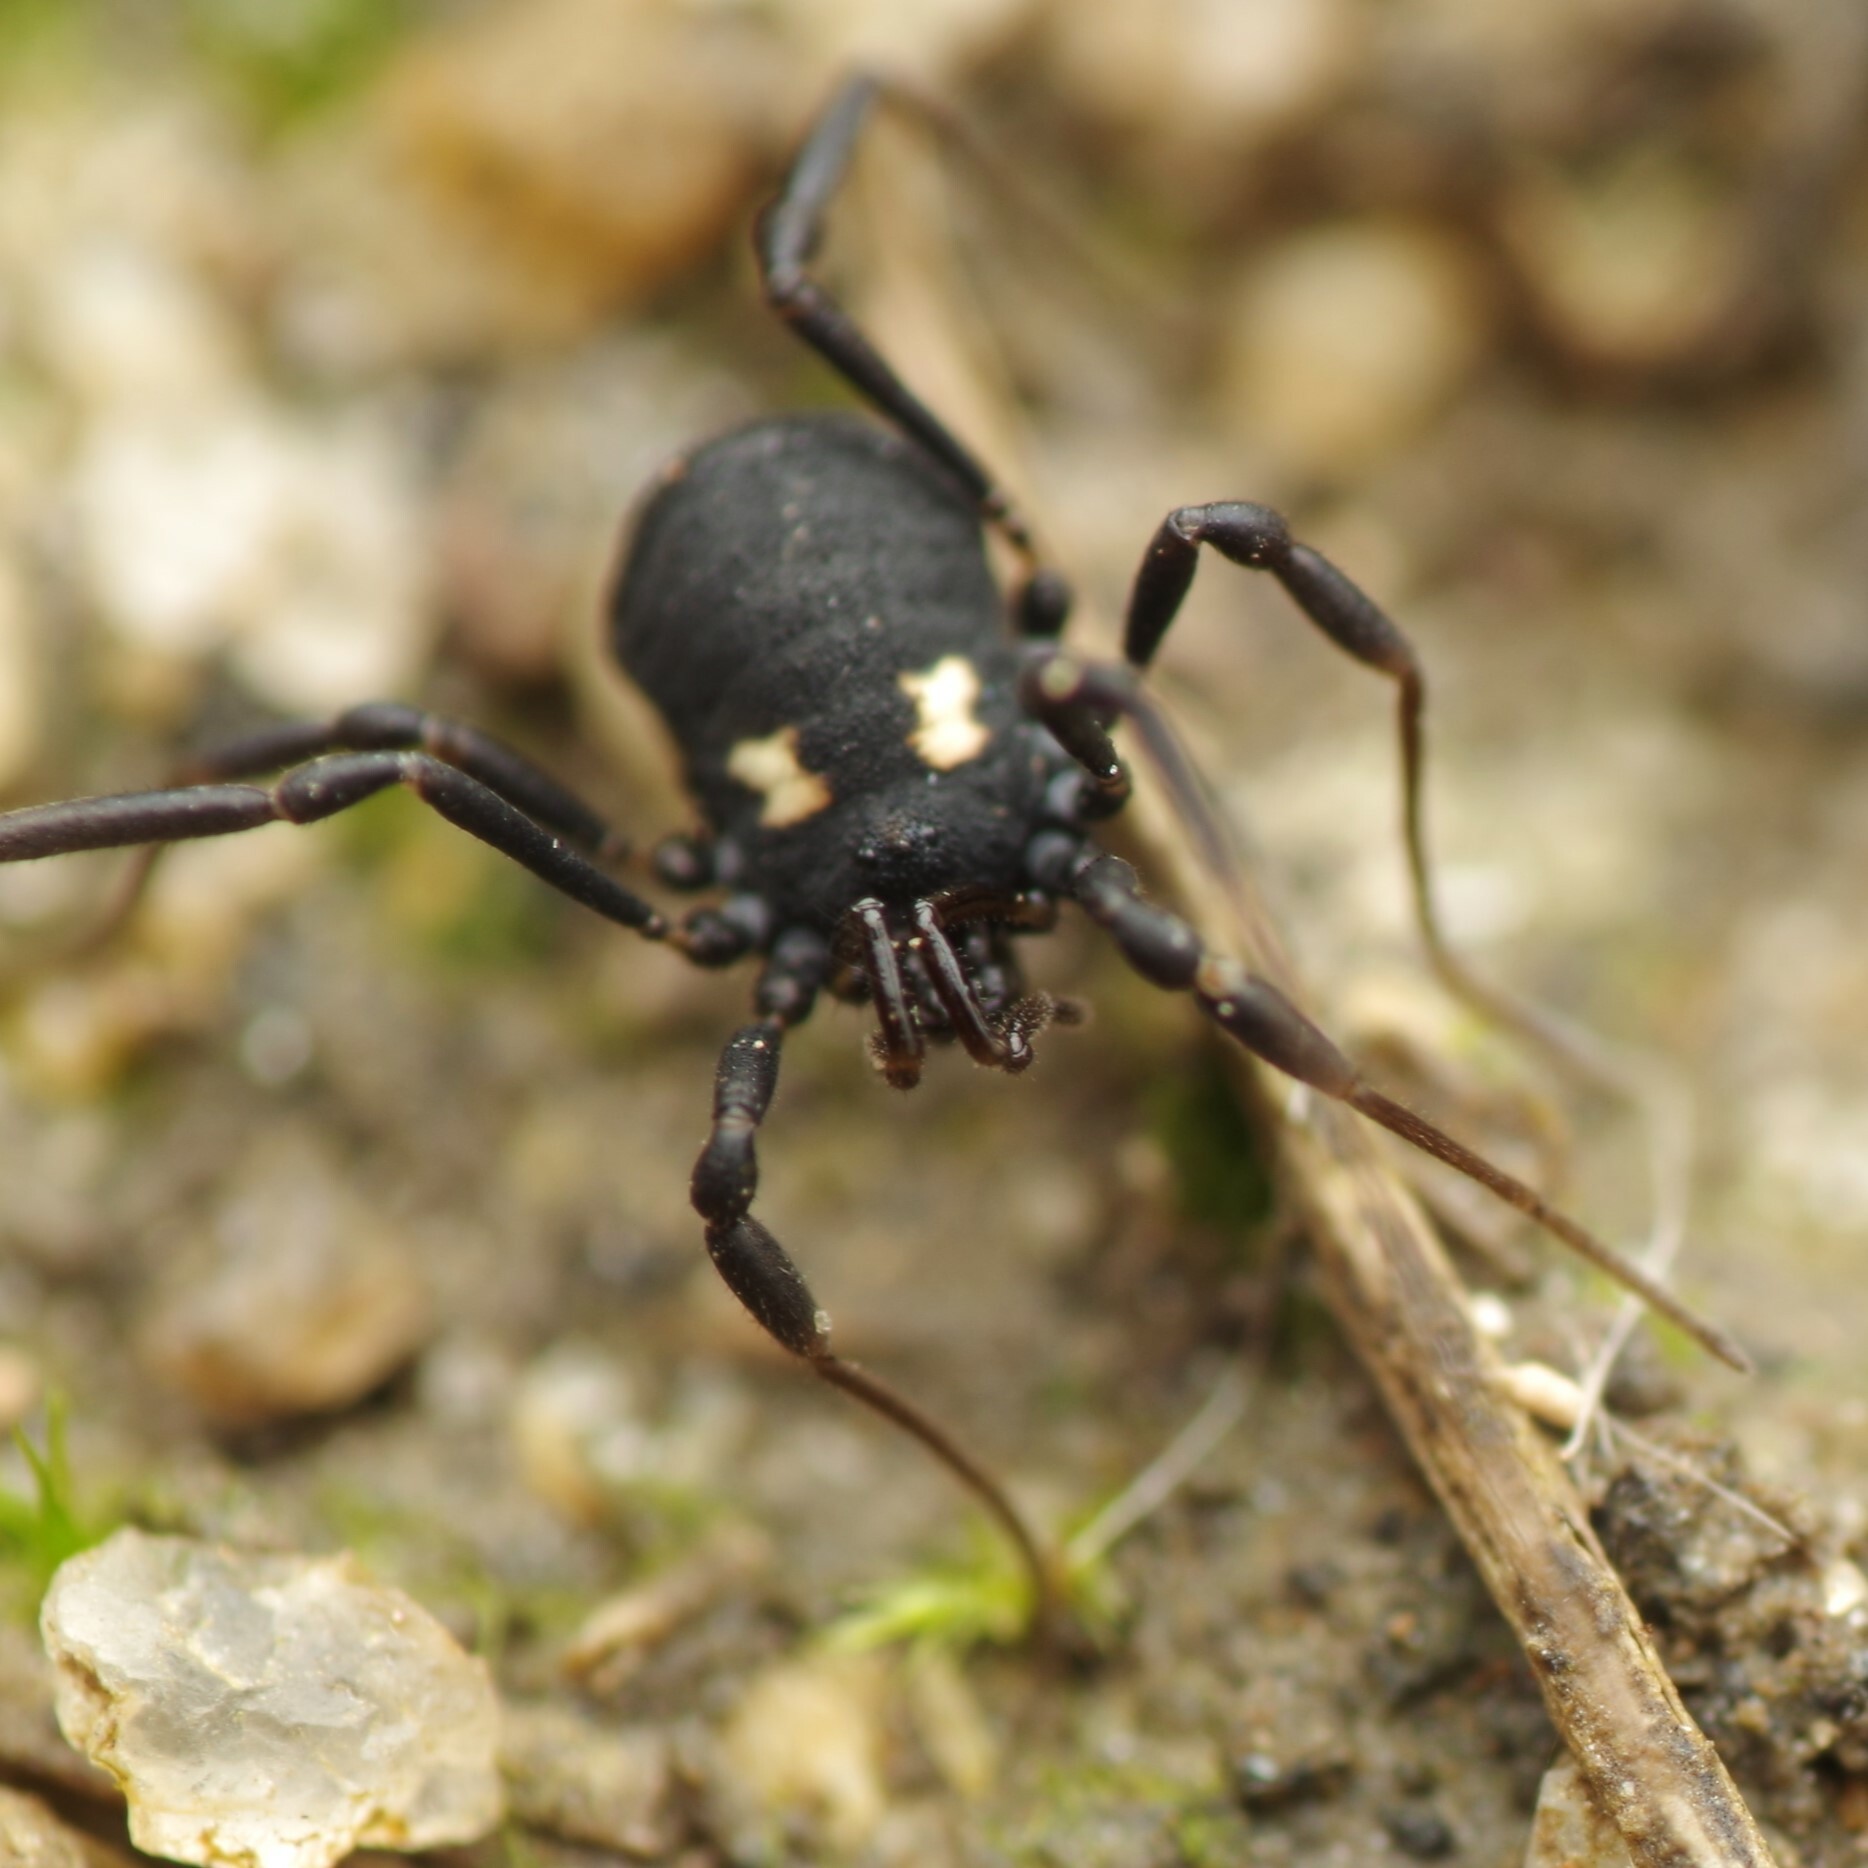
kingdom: Animalia
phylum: Arthropoda
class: Arachnida
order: Opiliones
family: Nemastomatidae
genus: Nemastoma
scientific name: Nemastoma bimaculatum
